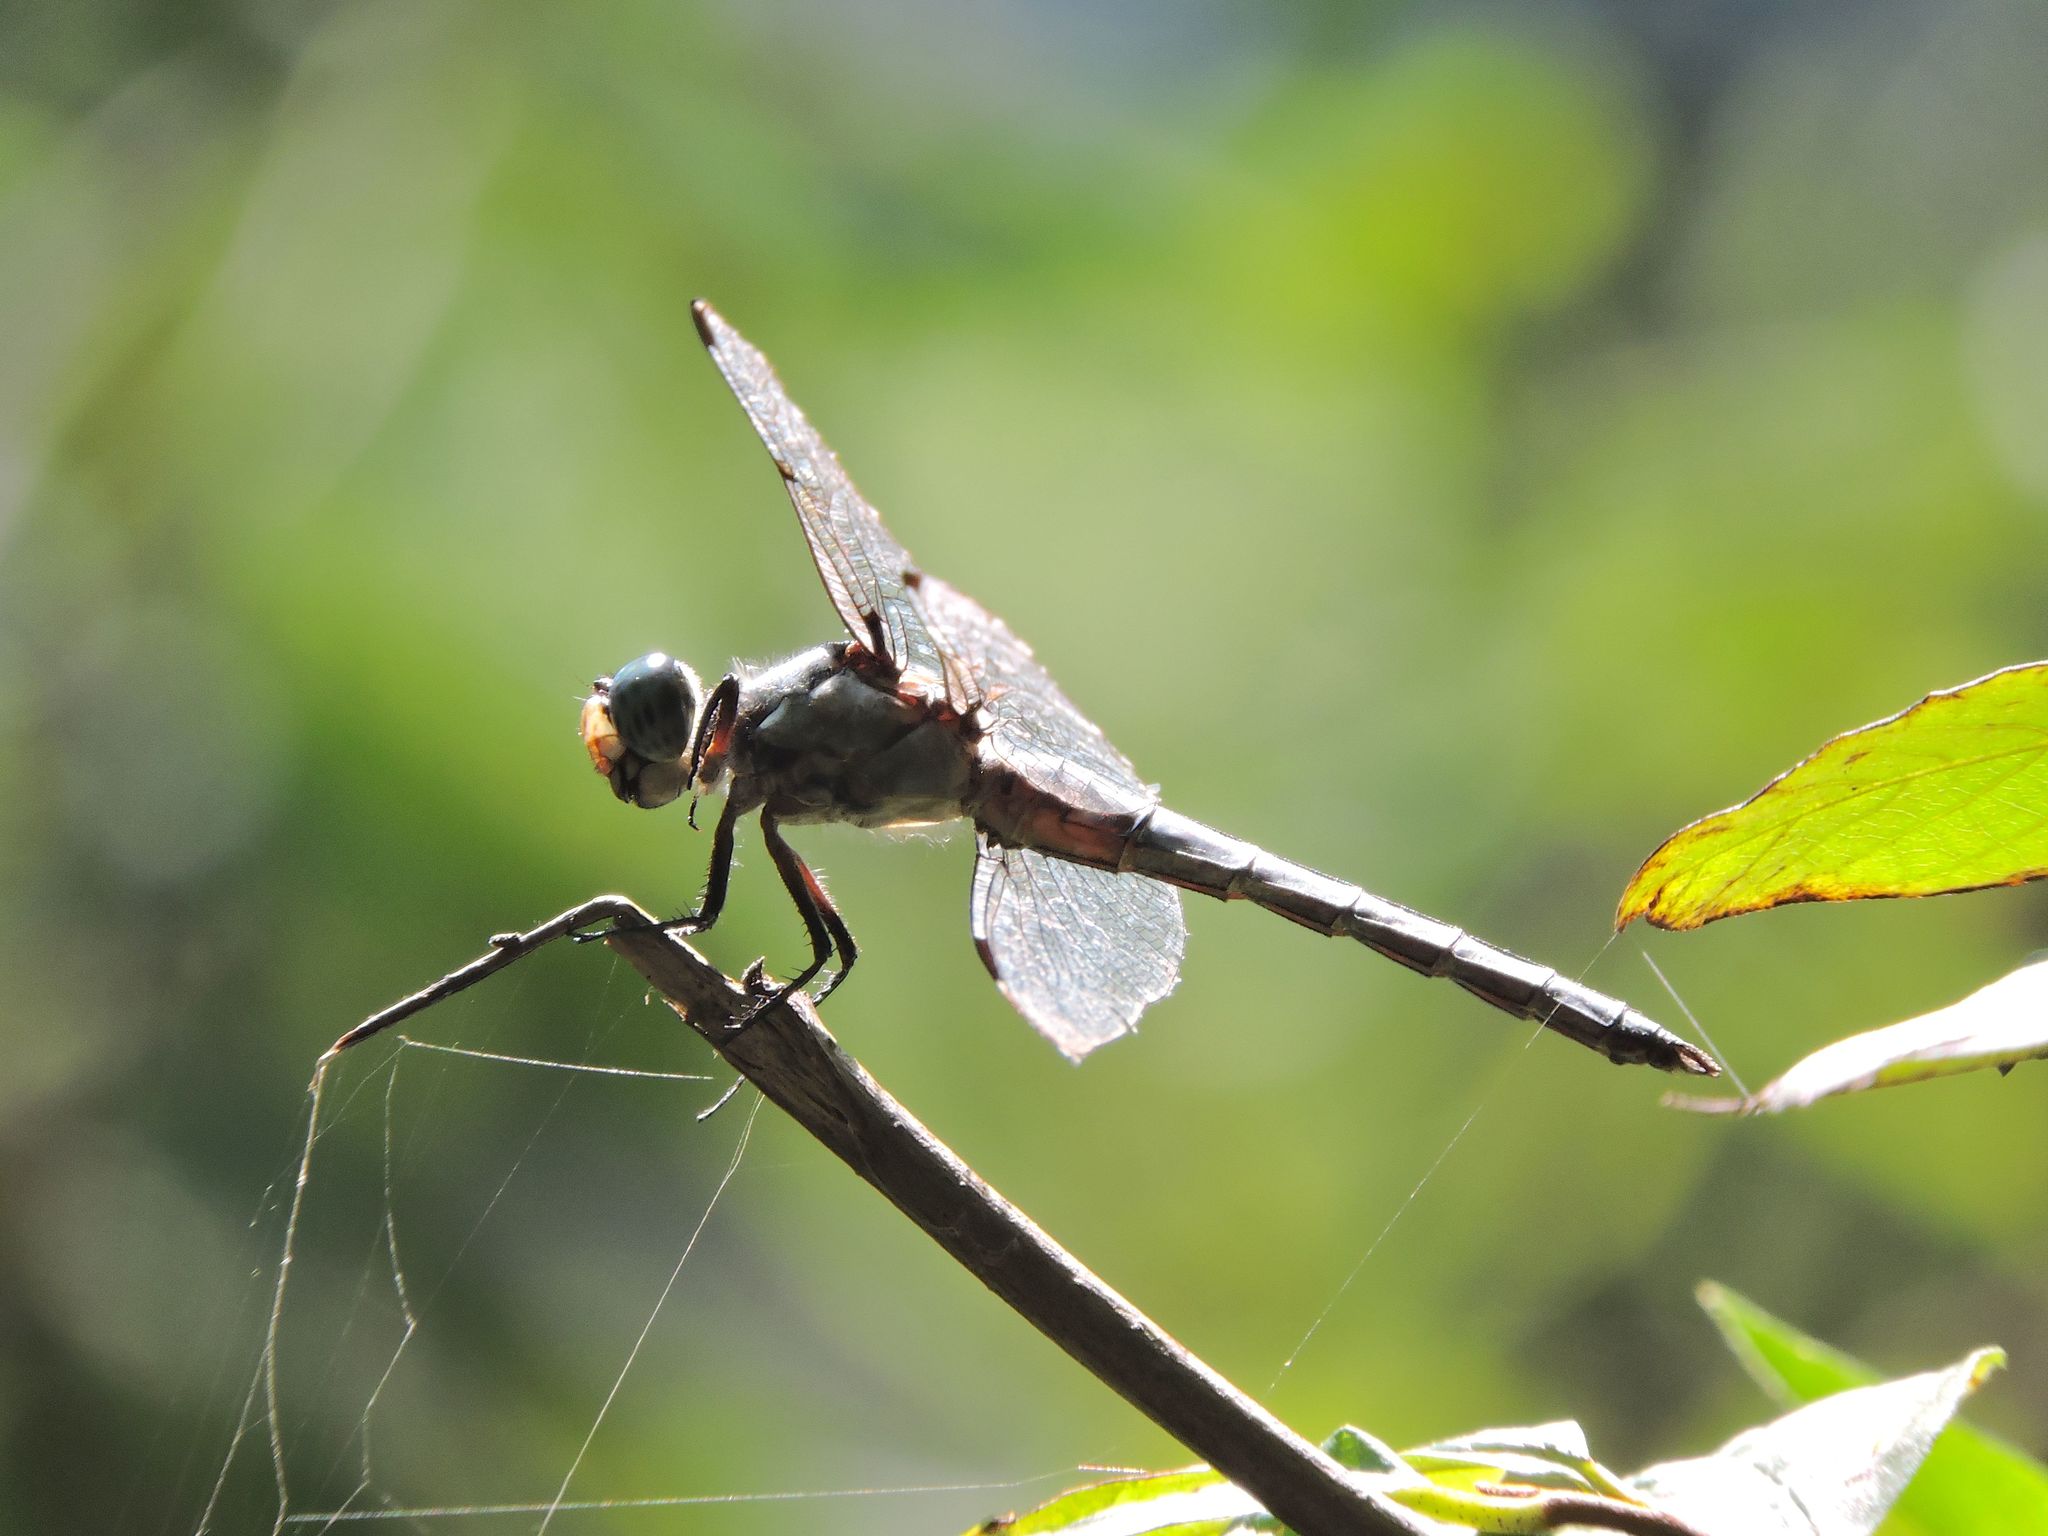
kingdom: Animalia
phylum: Arthropoda
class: Insecta
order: Odonata
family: Libellulidae
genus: Libellula
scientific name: Libellula vibrans
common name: Great blue skimmer
